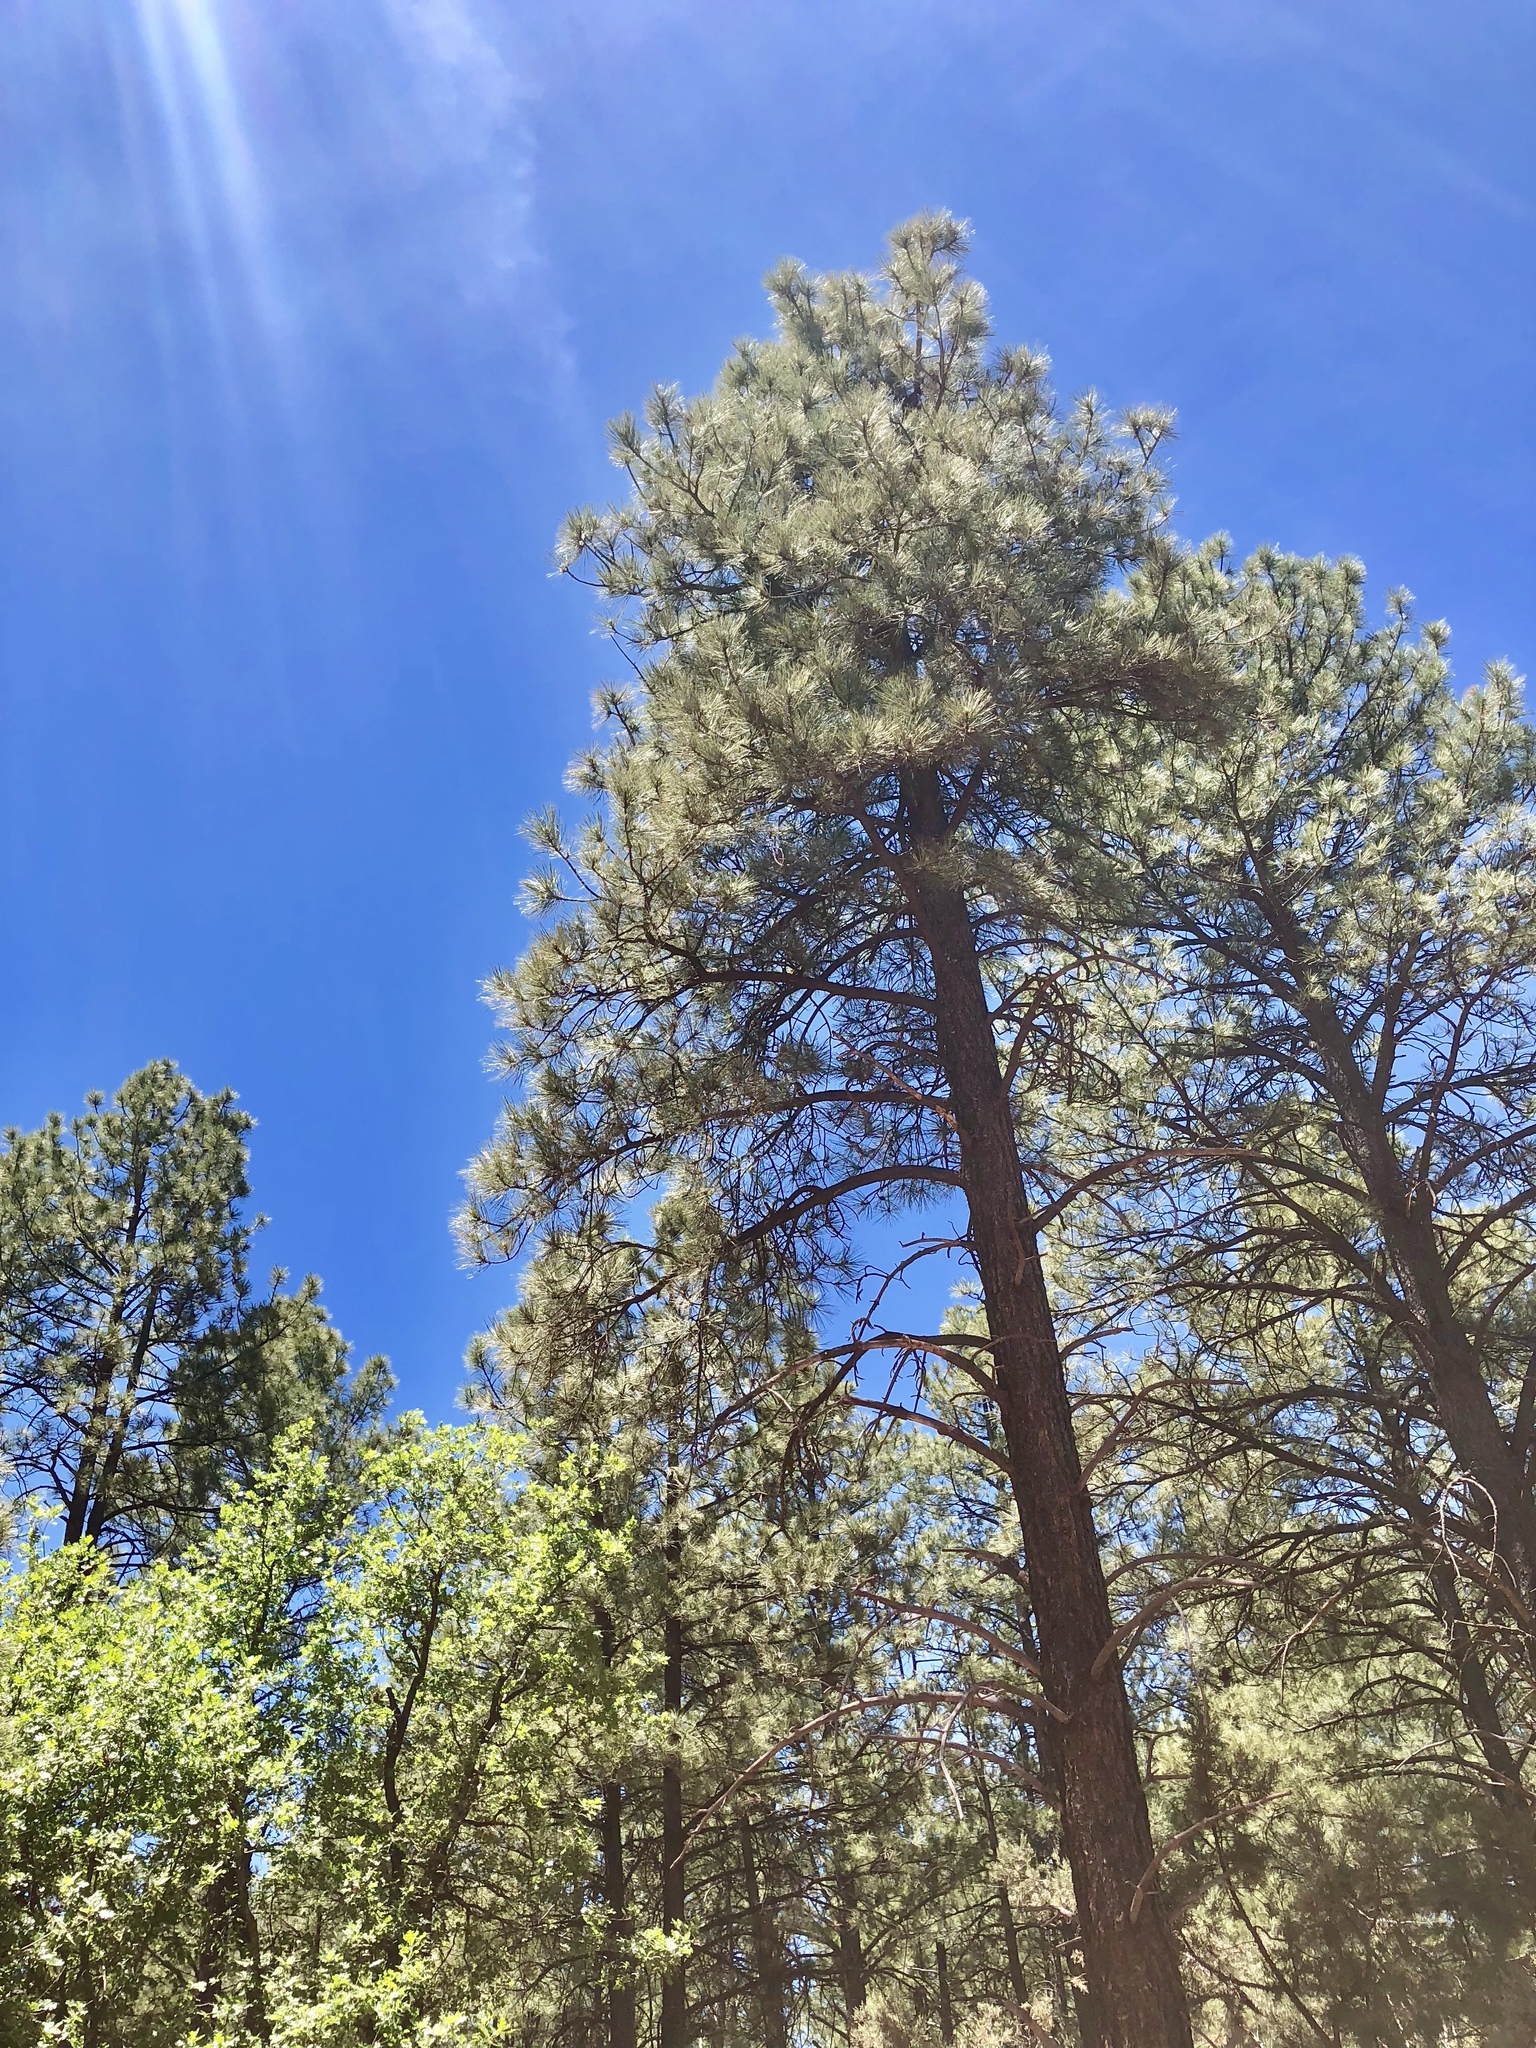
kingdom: Plantae
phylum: Tracheophyta
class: Pinopsida
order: Pinales
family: Pinaceae
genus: Pinus
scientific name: Pinus ponderosa
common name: Western yellow-pine
